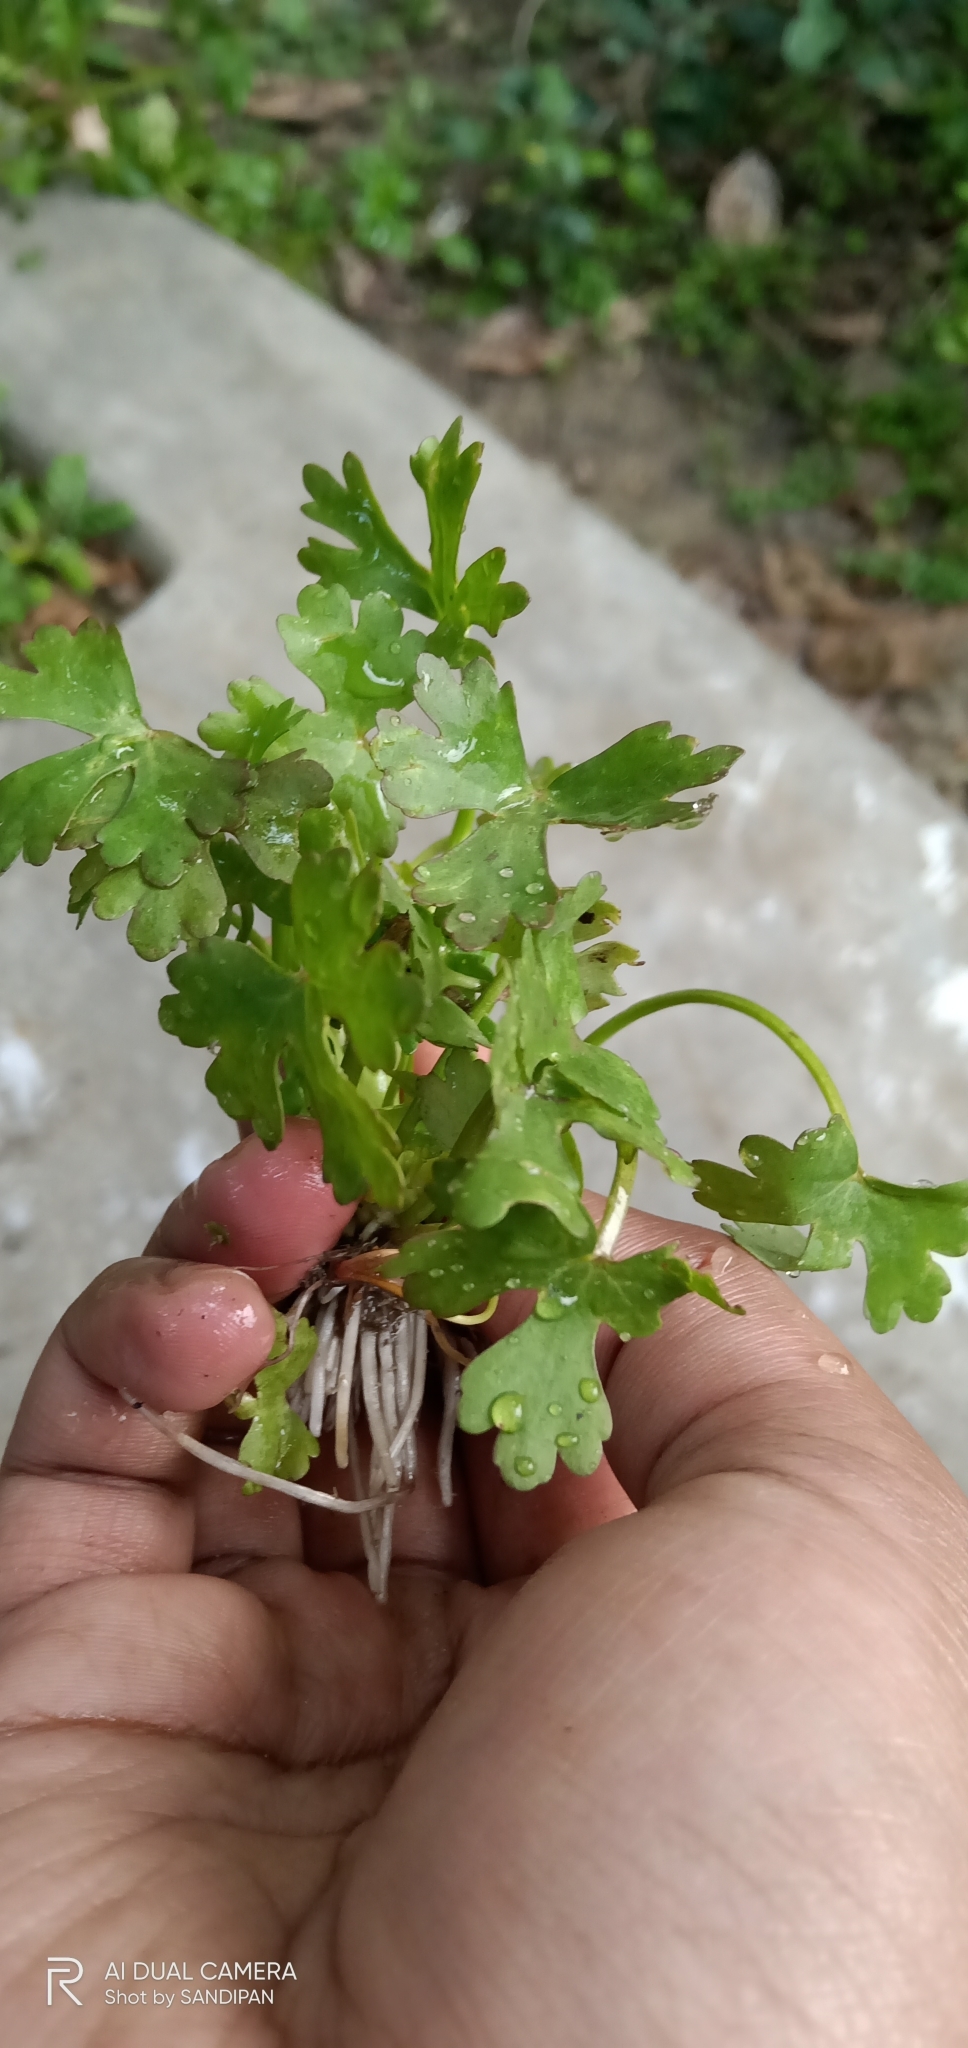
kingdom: Plantae
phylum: Tracheophyta
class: Magnoliopsida
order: Ranunculales
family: Ranunculaceae
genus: Ranunculus
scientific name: Ranunculus sceleratus
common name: Celery-leaved buttercup
